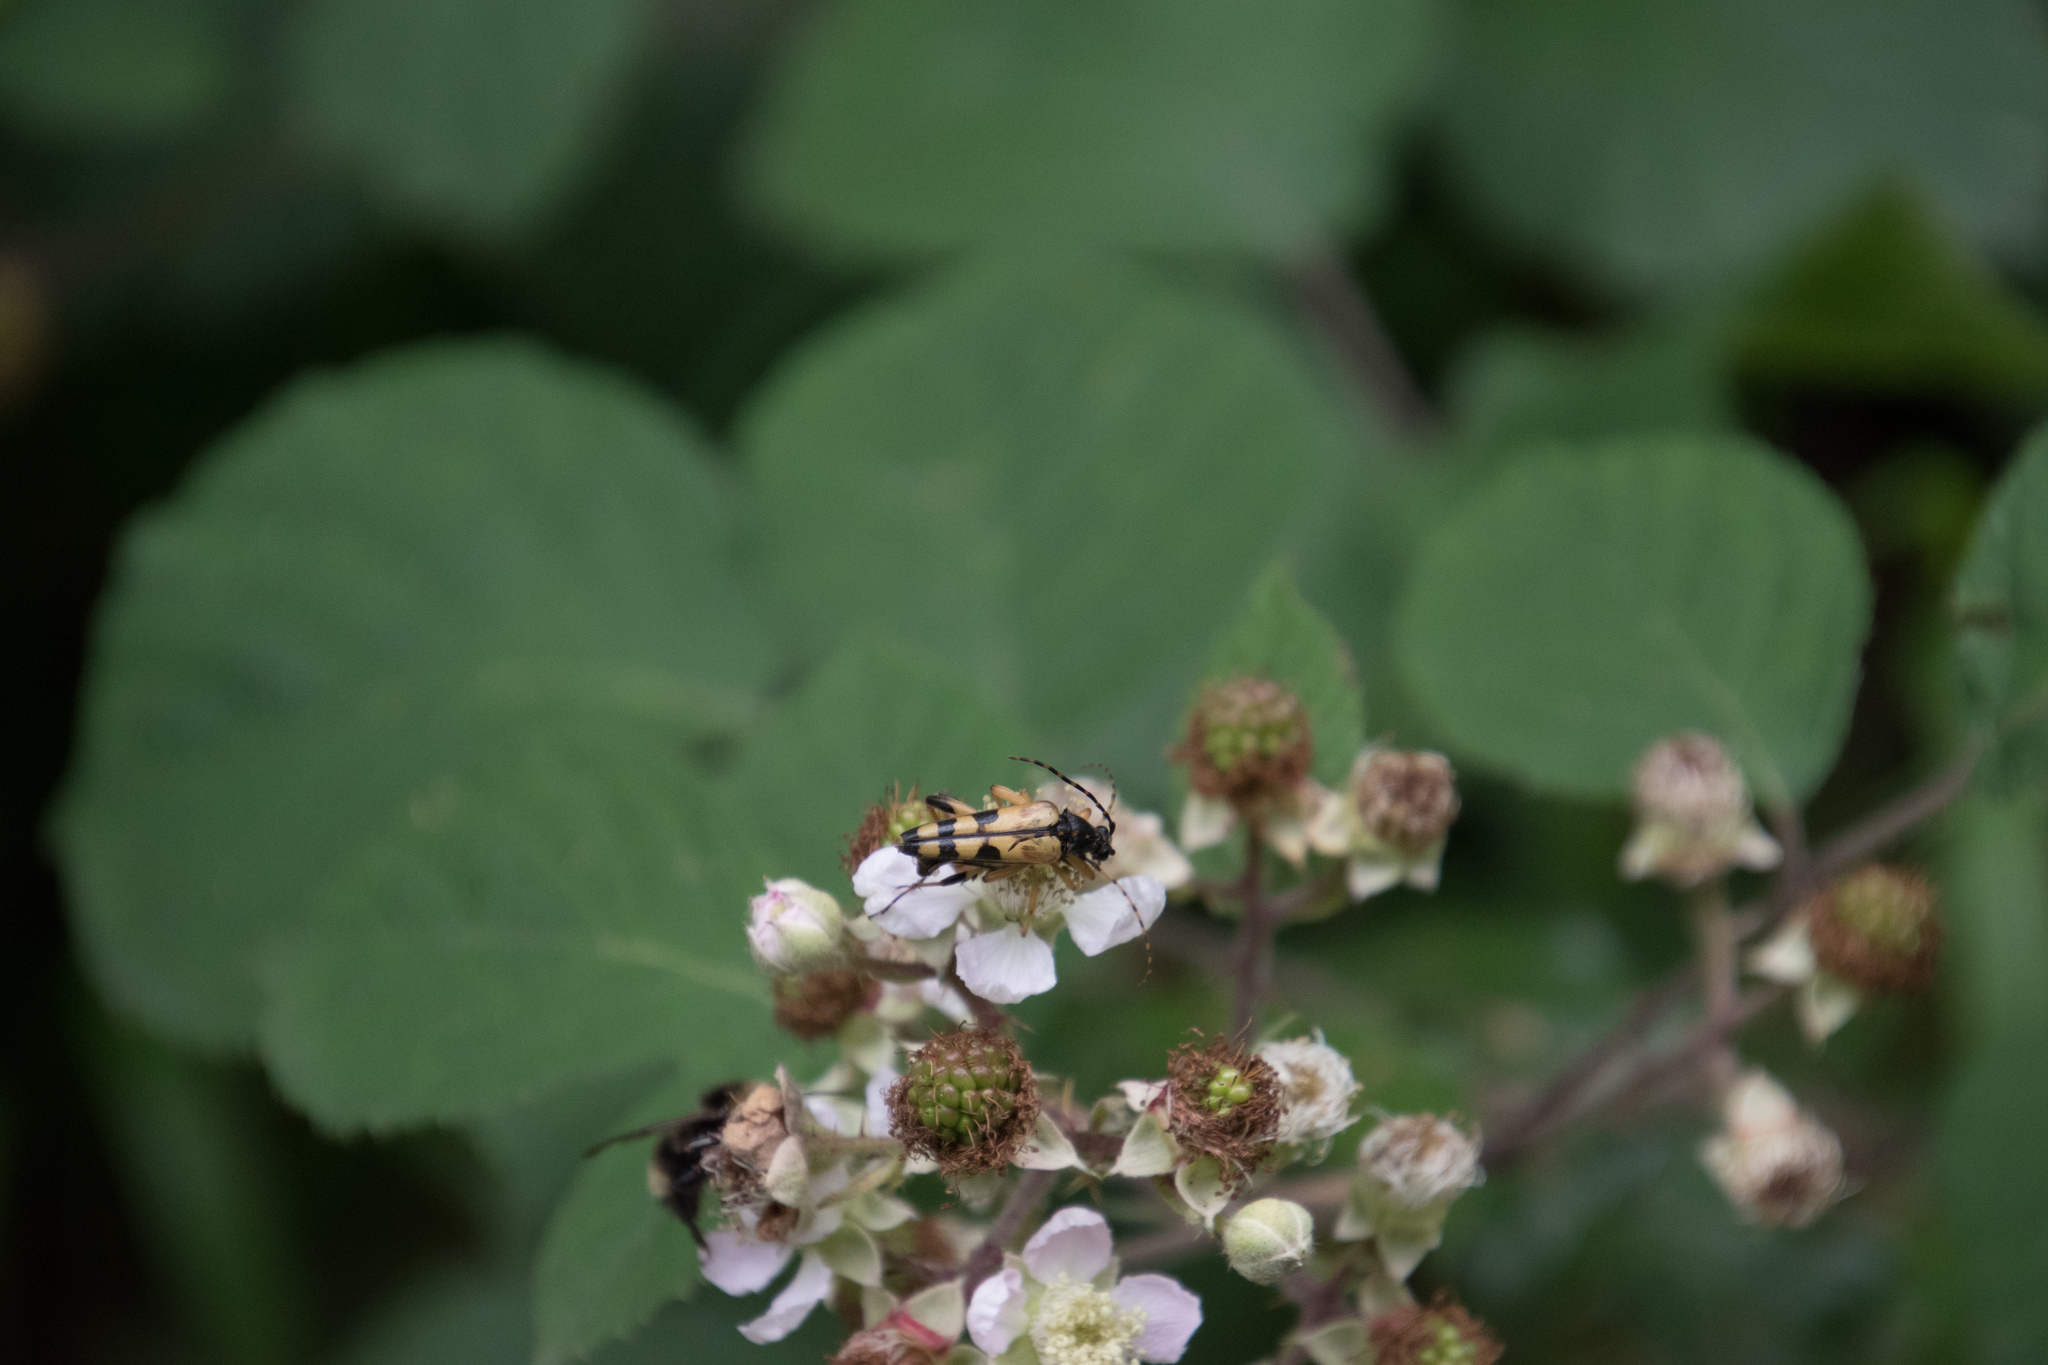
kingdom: Animalia
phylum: Arthropoda
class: Insecta
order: Coleoptera
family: Cerambycidae
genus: Rutpela
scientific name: Rutpela maculata
